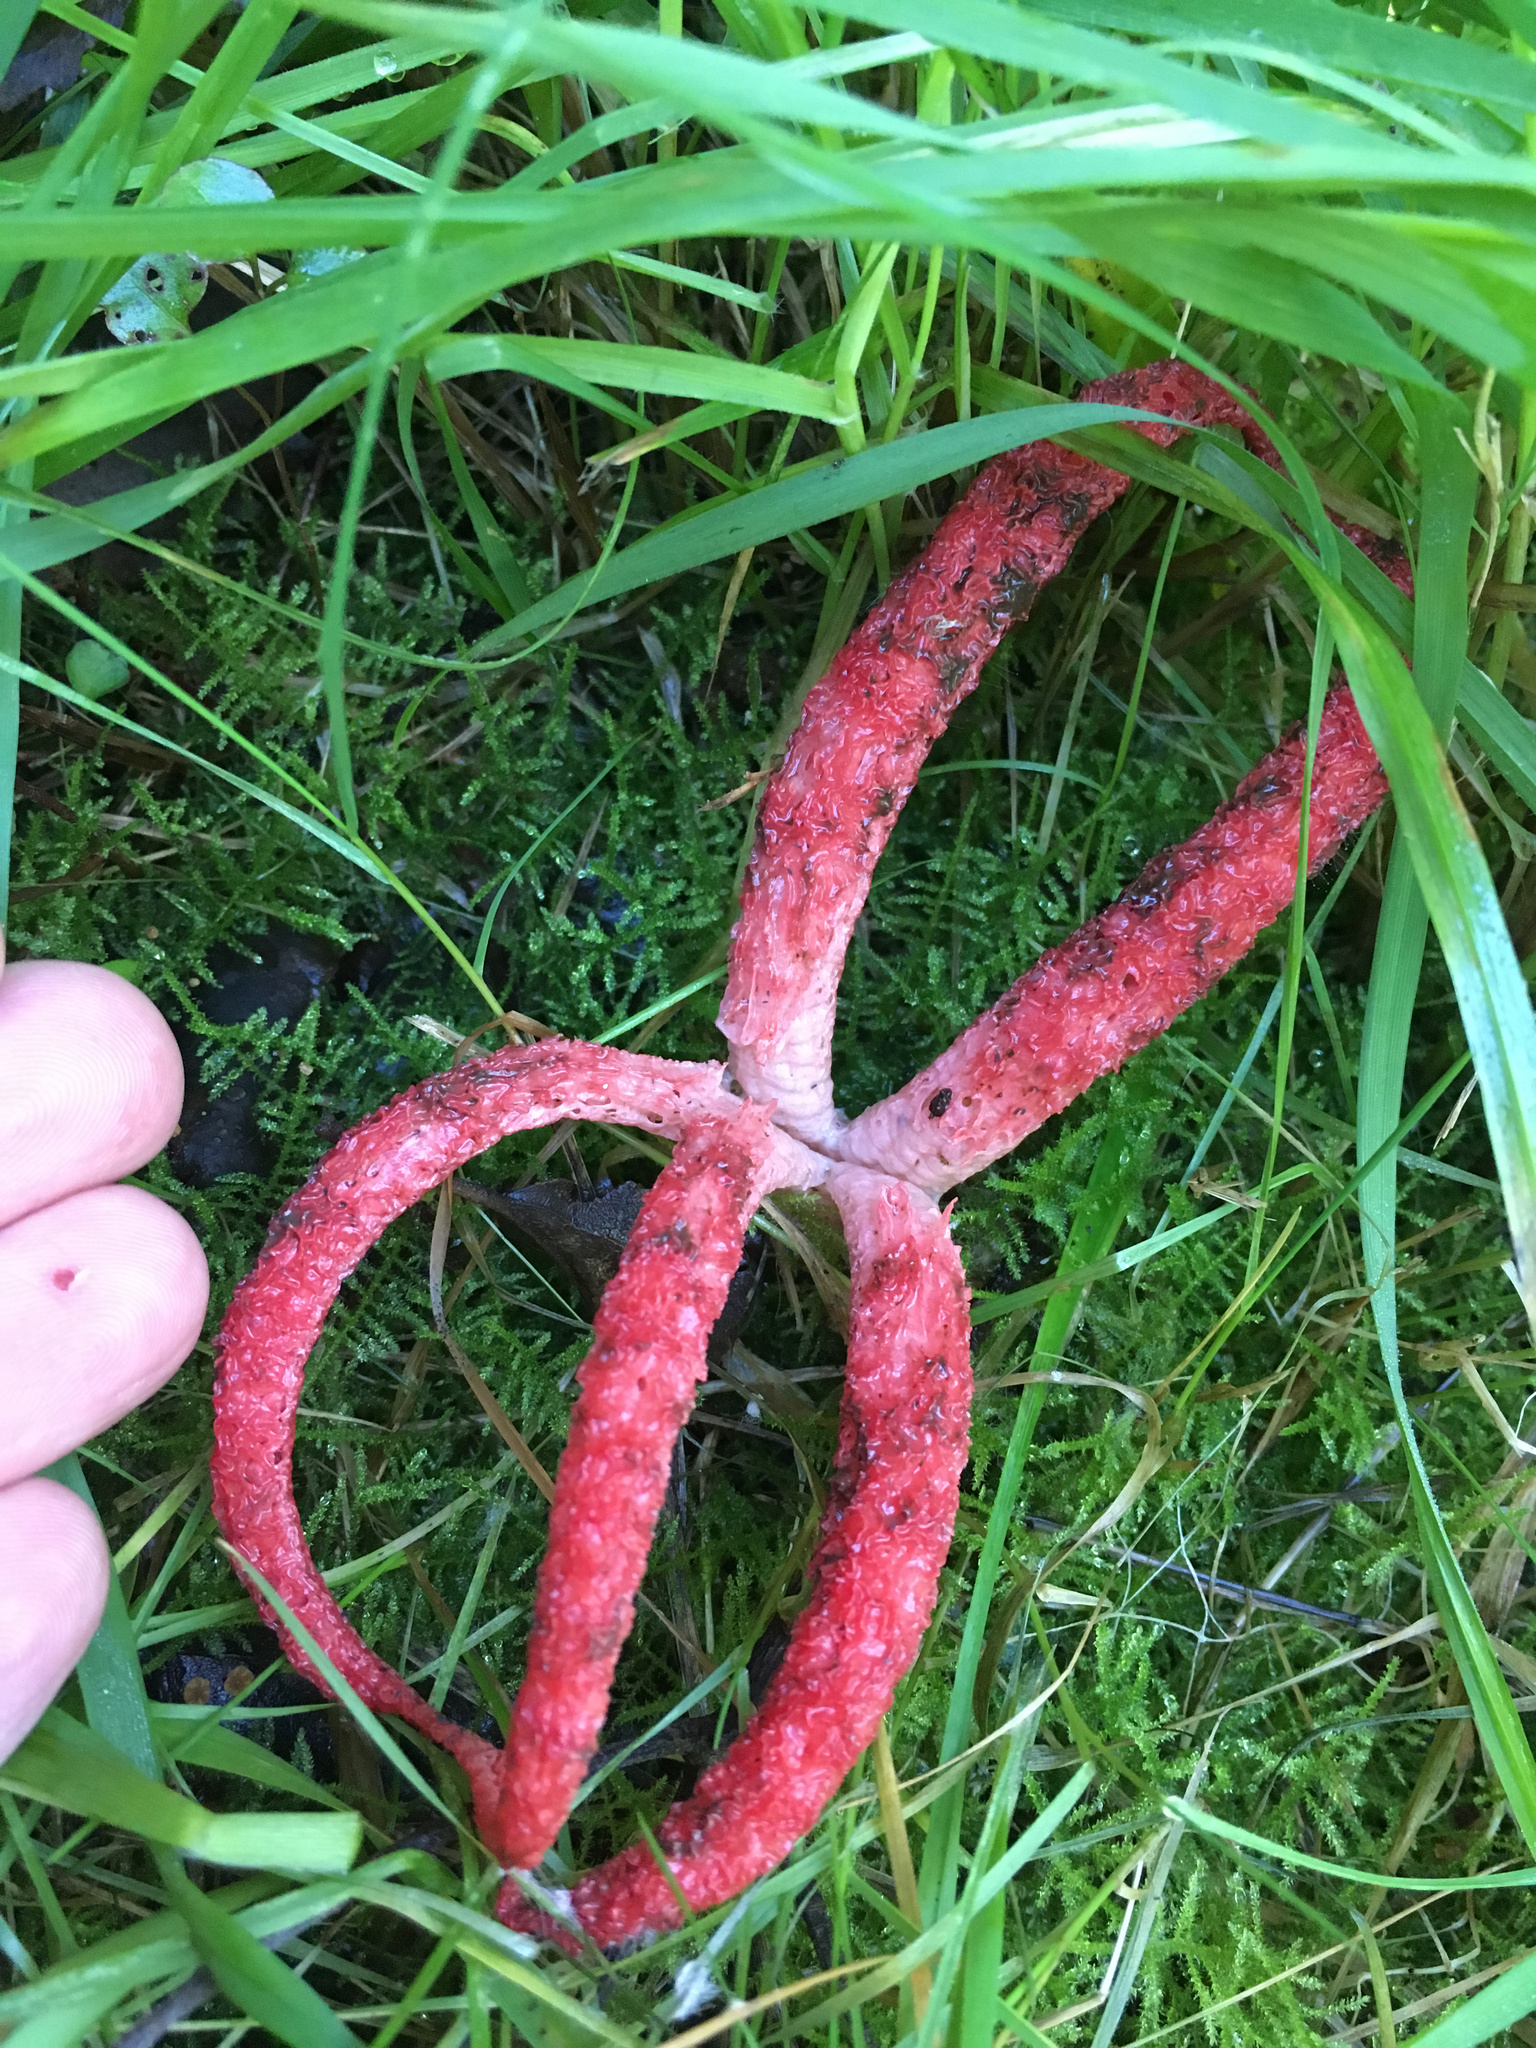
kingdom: Fungi
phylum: Basidiomycota
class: Agaricomycetes
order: Phallales
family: Phallaceae
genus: Clathrus
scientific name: Clathrus archeri
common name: Devil's fingers
